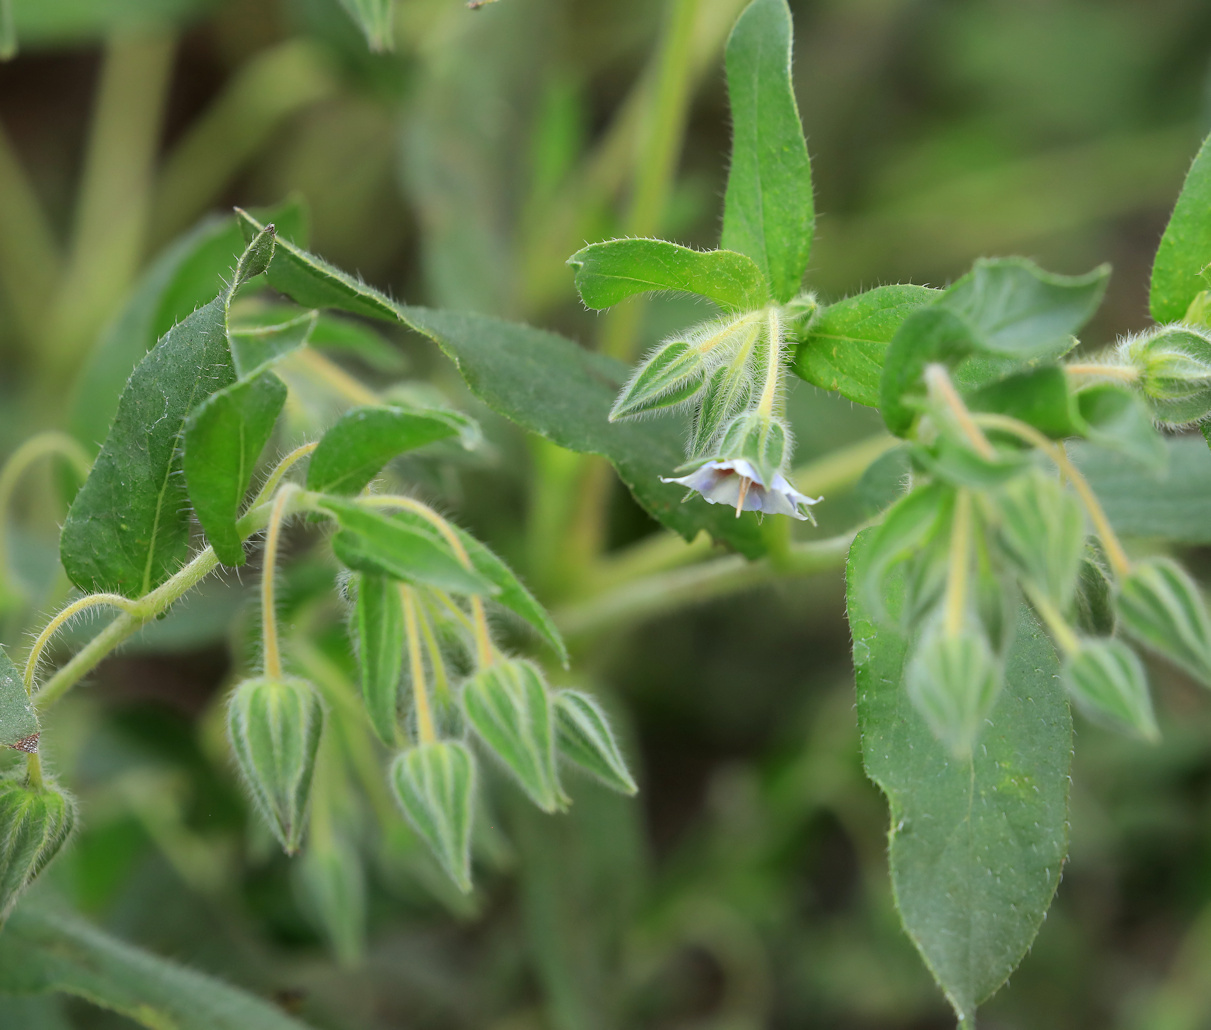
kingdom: Plantae
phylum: Tracheophyta
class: Magnoliopsida
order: Boraginales
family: Boraginaceae
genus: Trichodesma
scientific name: Trichodesma zeylanicum
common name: Camelbush
